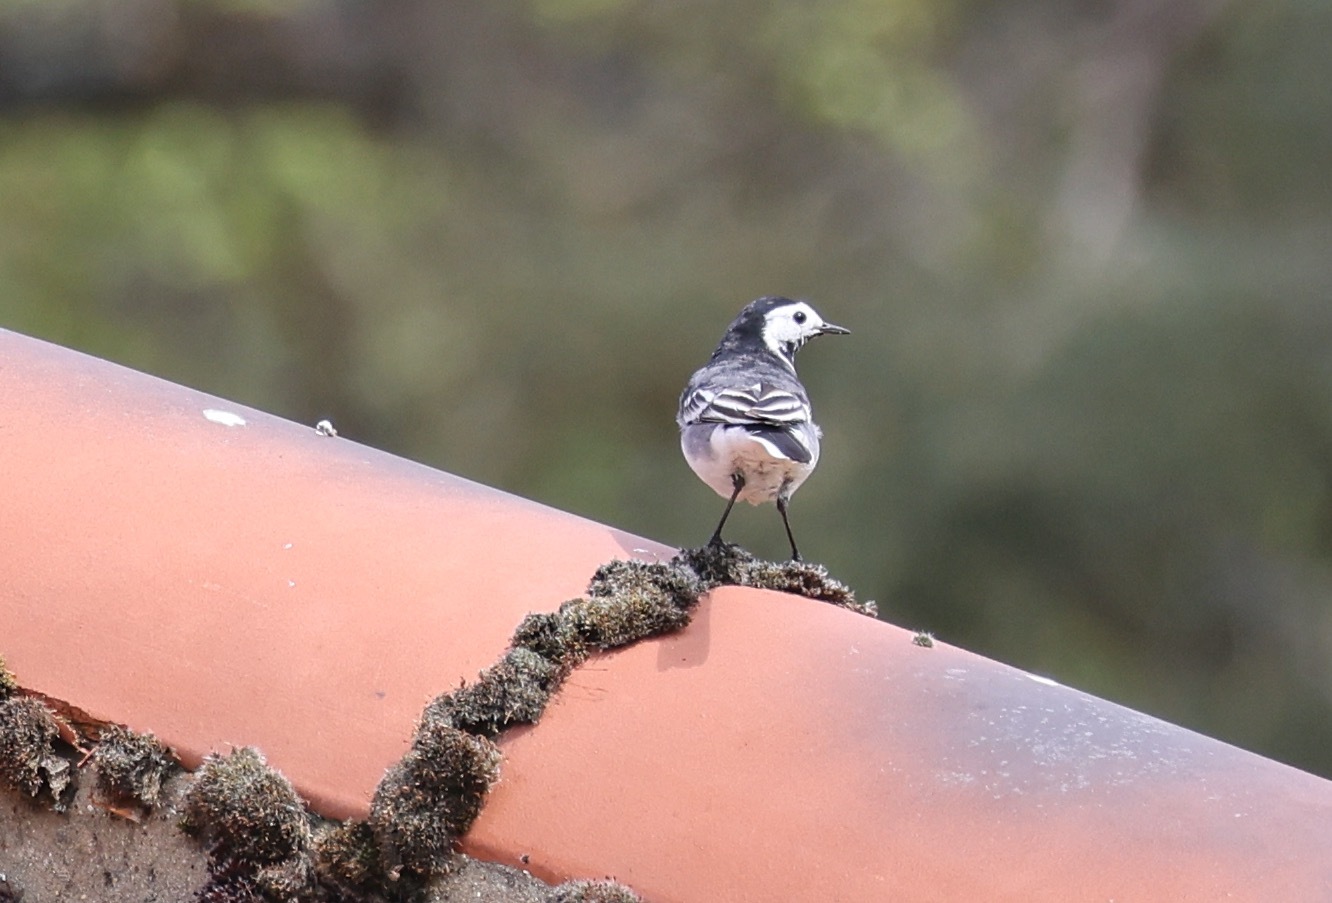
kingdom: Animalia
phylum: Chordata
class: Aves
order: Passeriformes
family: Motacillidae
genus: Motacilla
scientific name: Motacilla alba
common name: White wagtail
